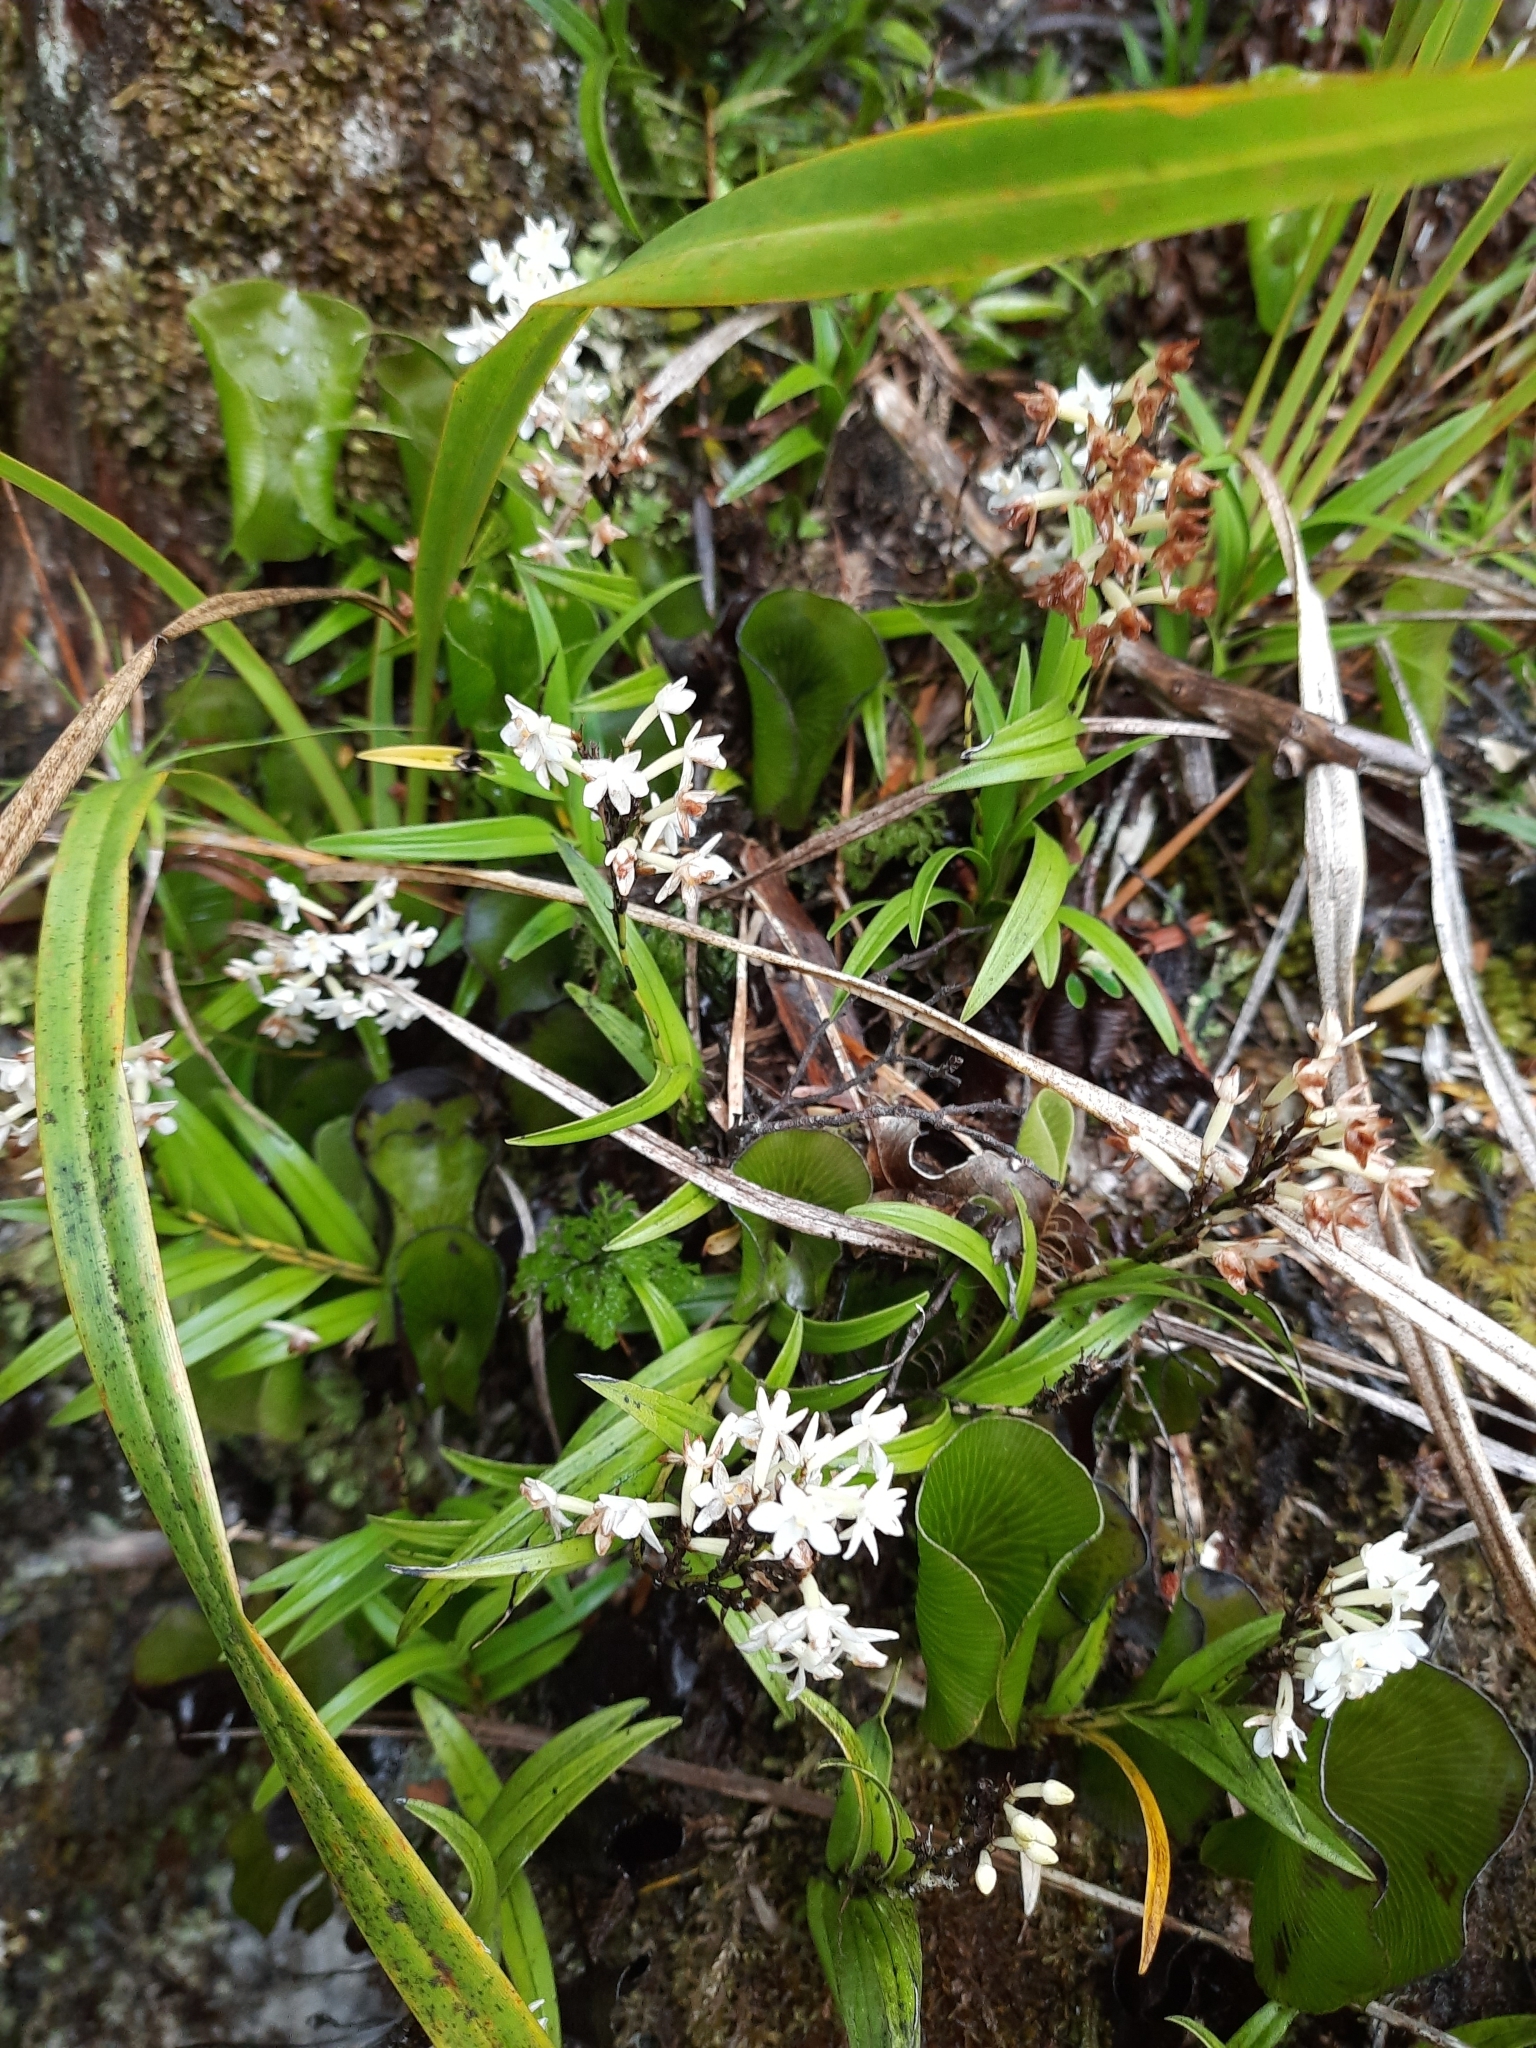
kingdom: Plantae
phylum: Tracheophyta
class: Liliopsida
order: Asparagales
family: Orchidaceae
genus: Earina
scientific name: Earina autumnalis
